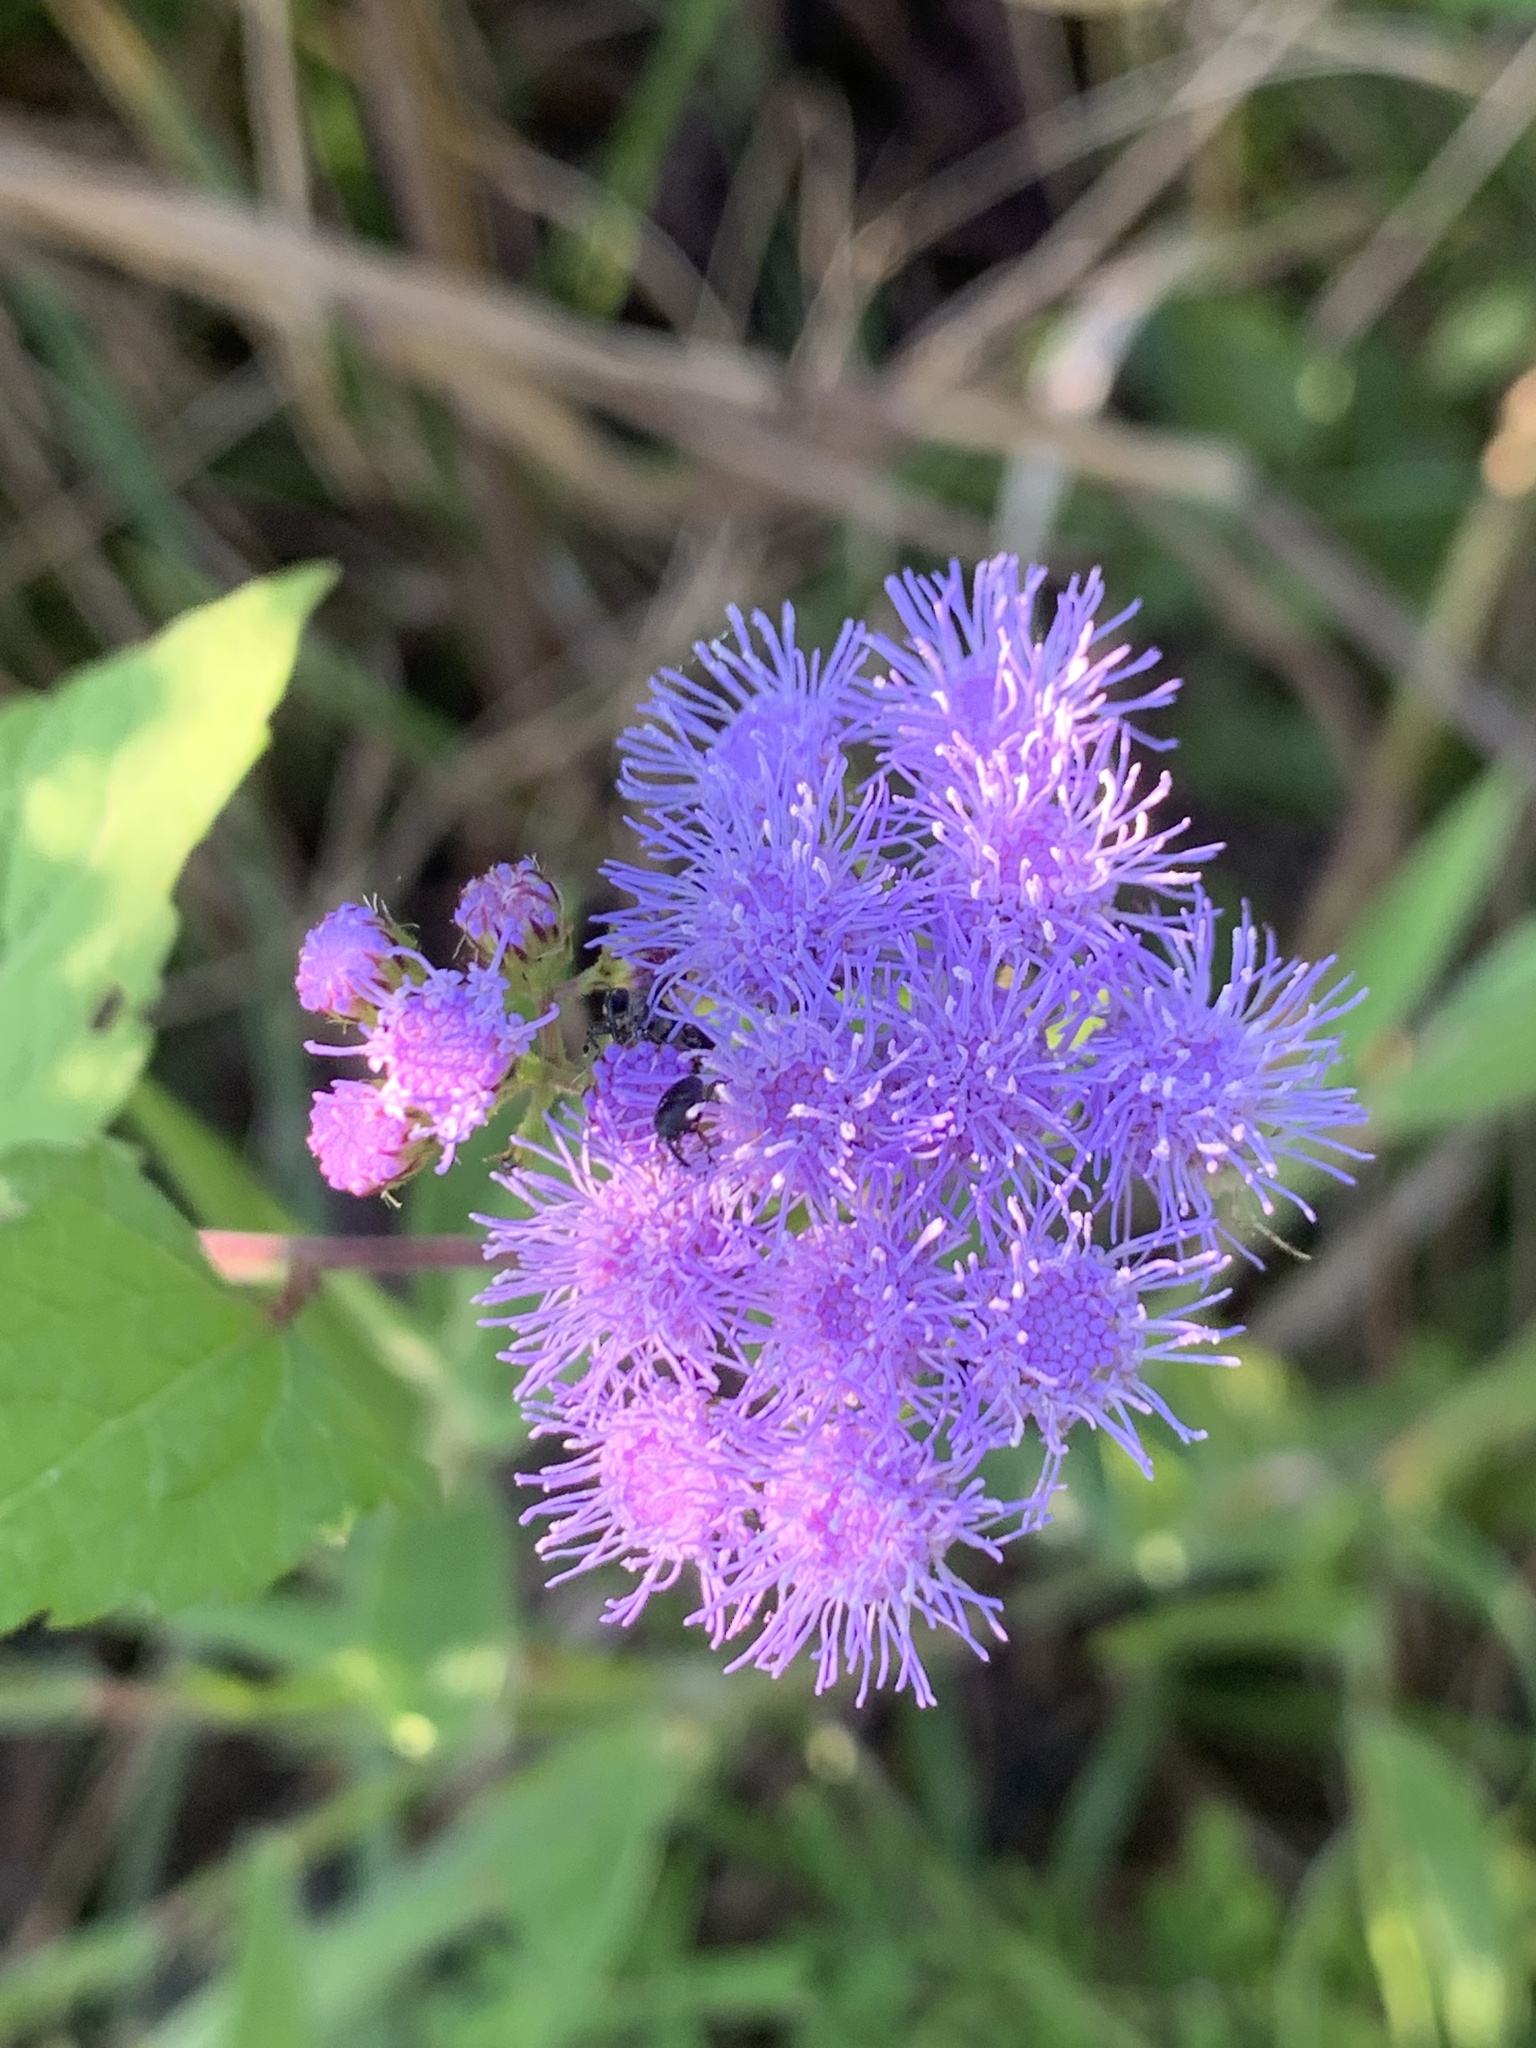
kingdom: Plantae
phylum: Tracheophyta
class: Magnoliopsida
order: Asterales
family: Asteraceae
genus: Conoclinium
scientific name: Conoclinium coelestinum
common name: Blue mistflower
